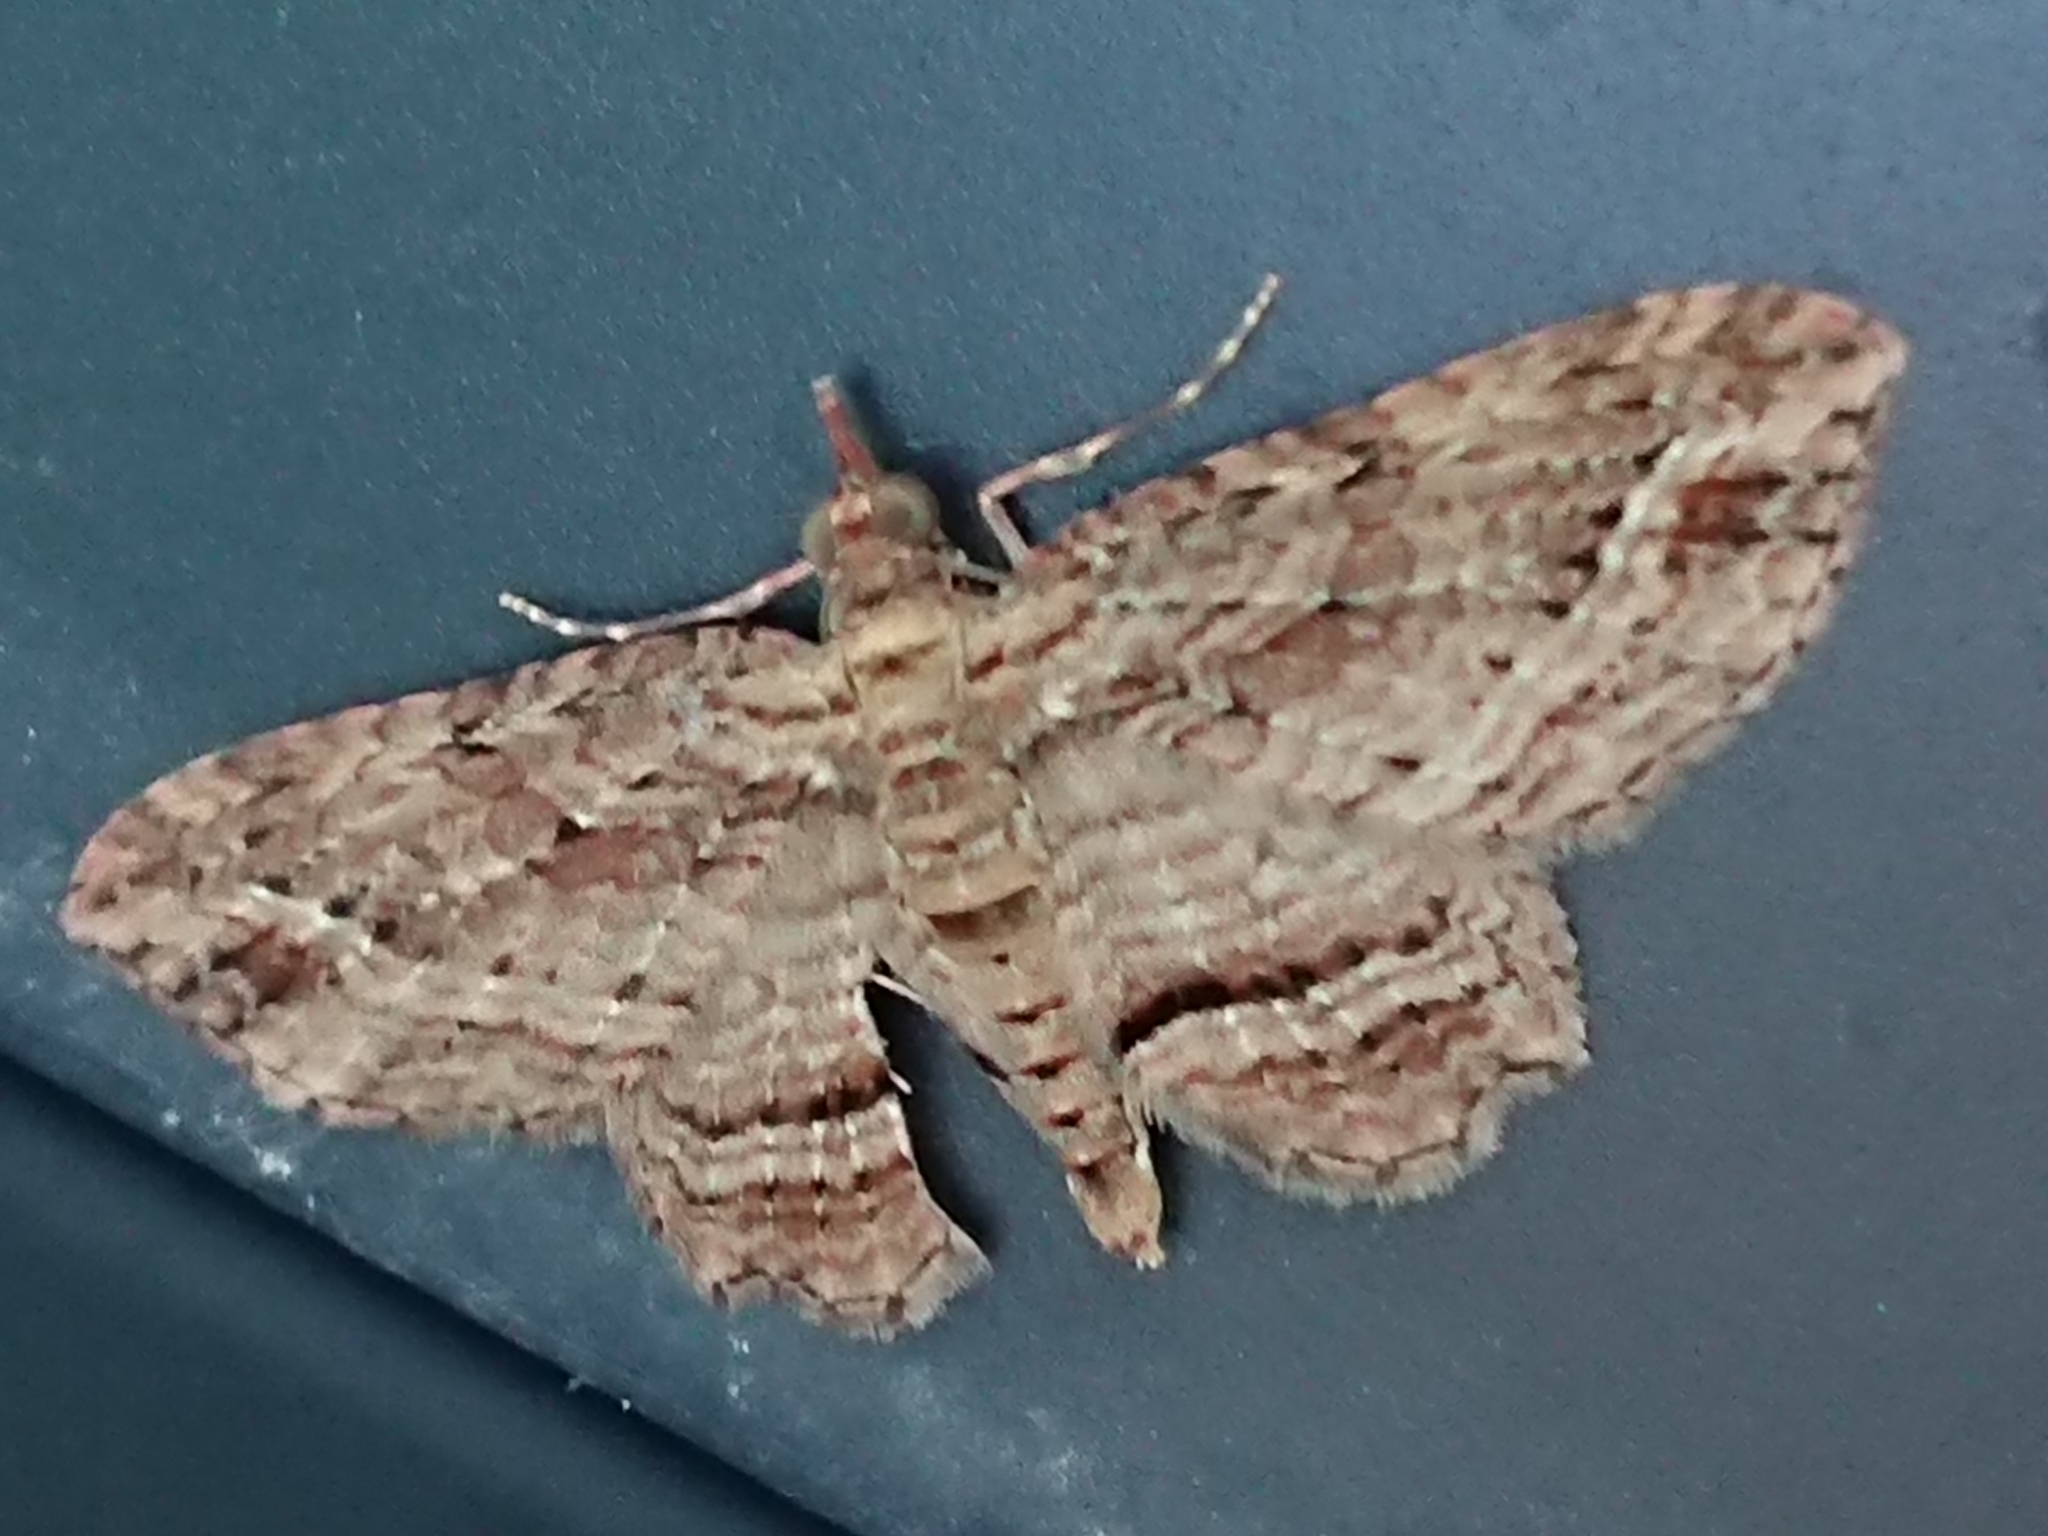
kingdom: Animalia
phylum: Arthropoda
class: Insecta
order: Lepidoptera
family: Geometridae
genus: Chloroclystis
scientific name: Chloroclystis filata
